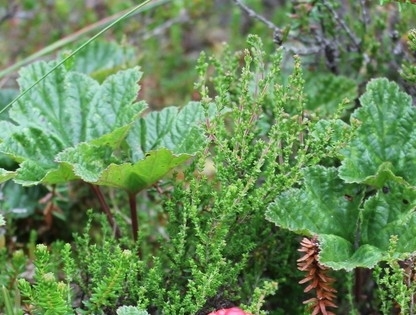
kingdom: Plantae
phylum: Tracheophyta
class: Magnoliopsida
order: Ericales
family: Ericaceae
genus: Calluna
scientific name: Calluna vulgaris
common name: Heather
